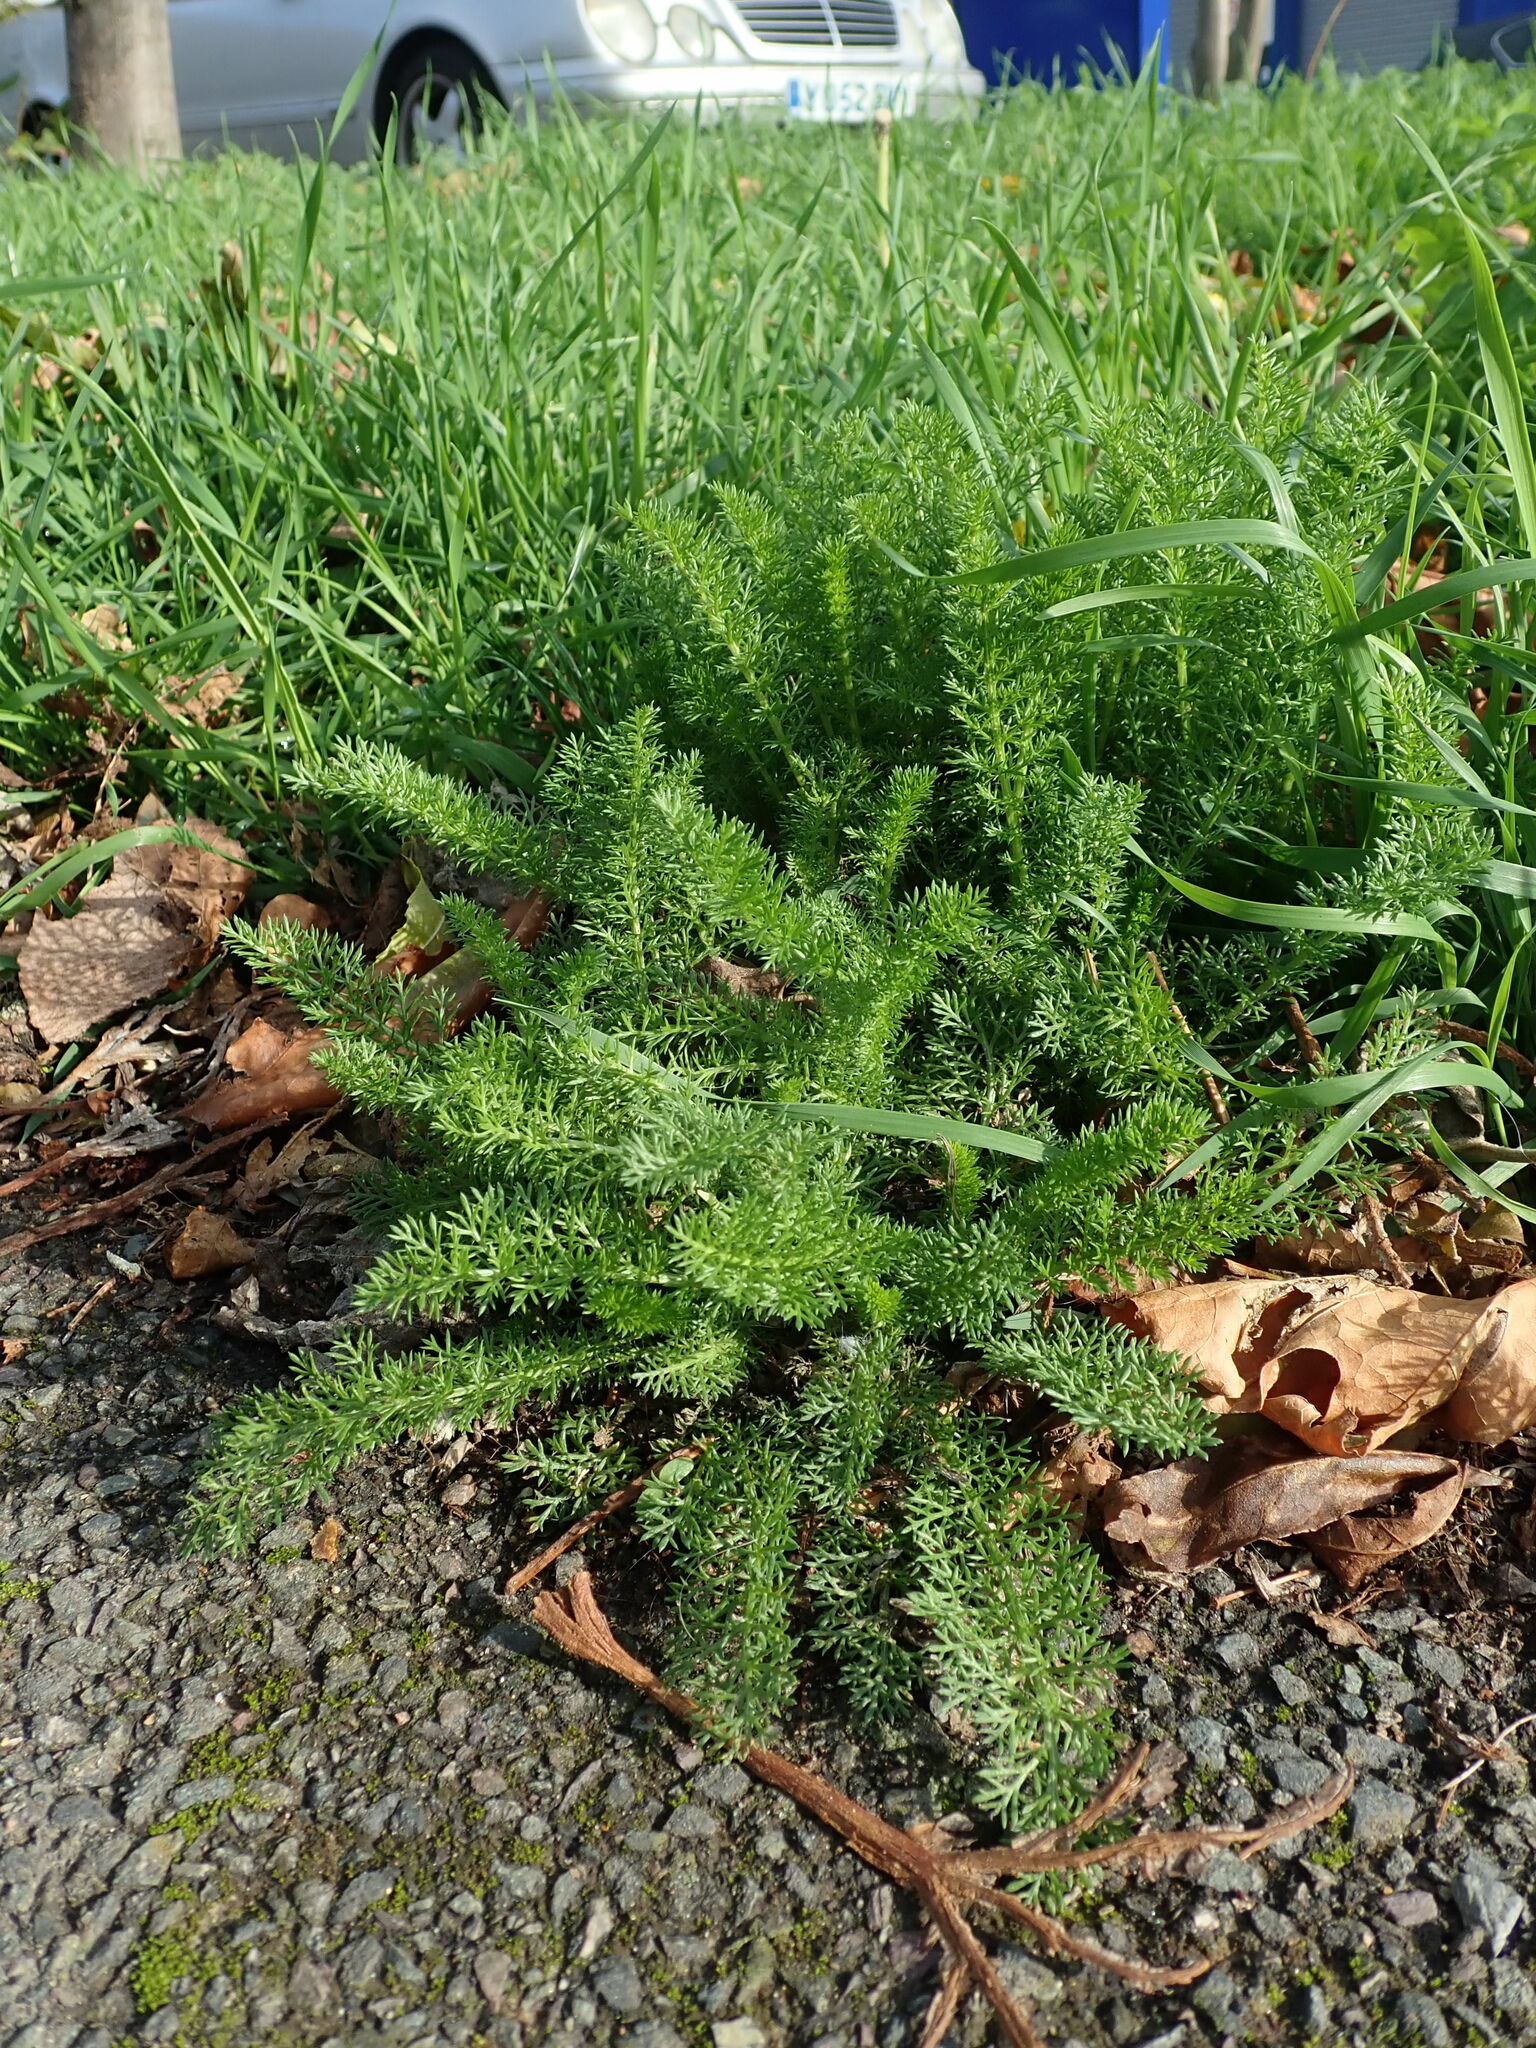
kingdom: Plantae
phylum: Tracheophyta
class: Magnoliopsida
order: Asterales
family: Asteraceae
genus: Achillea
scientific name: Achillea millefolium
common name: Yarrow
